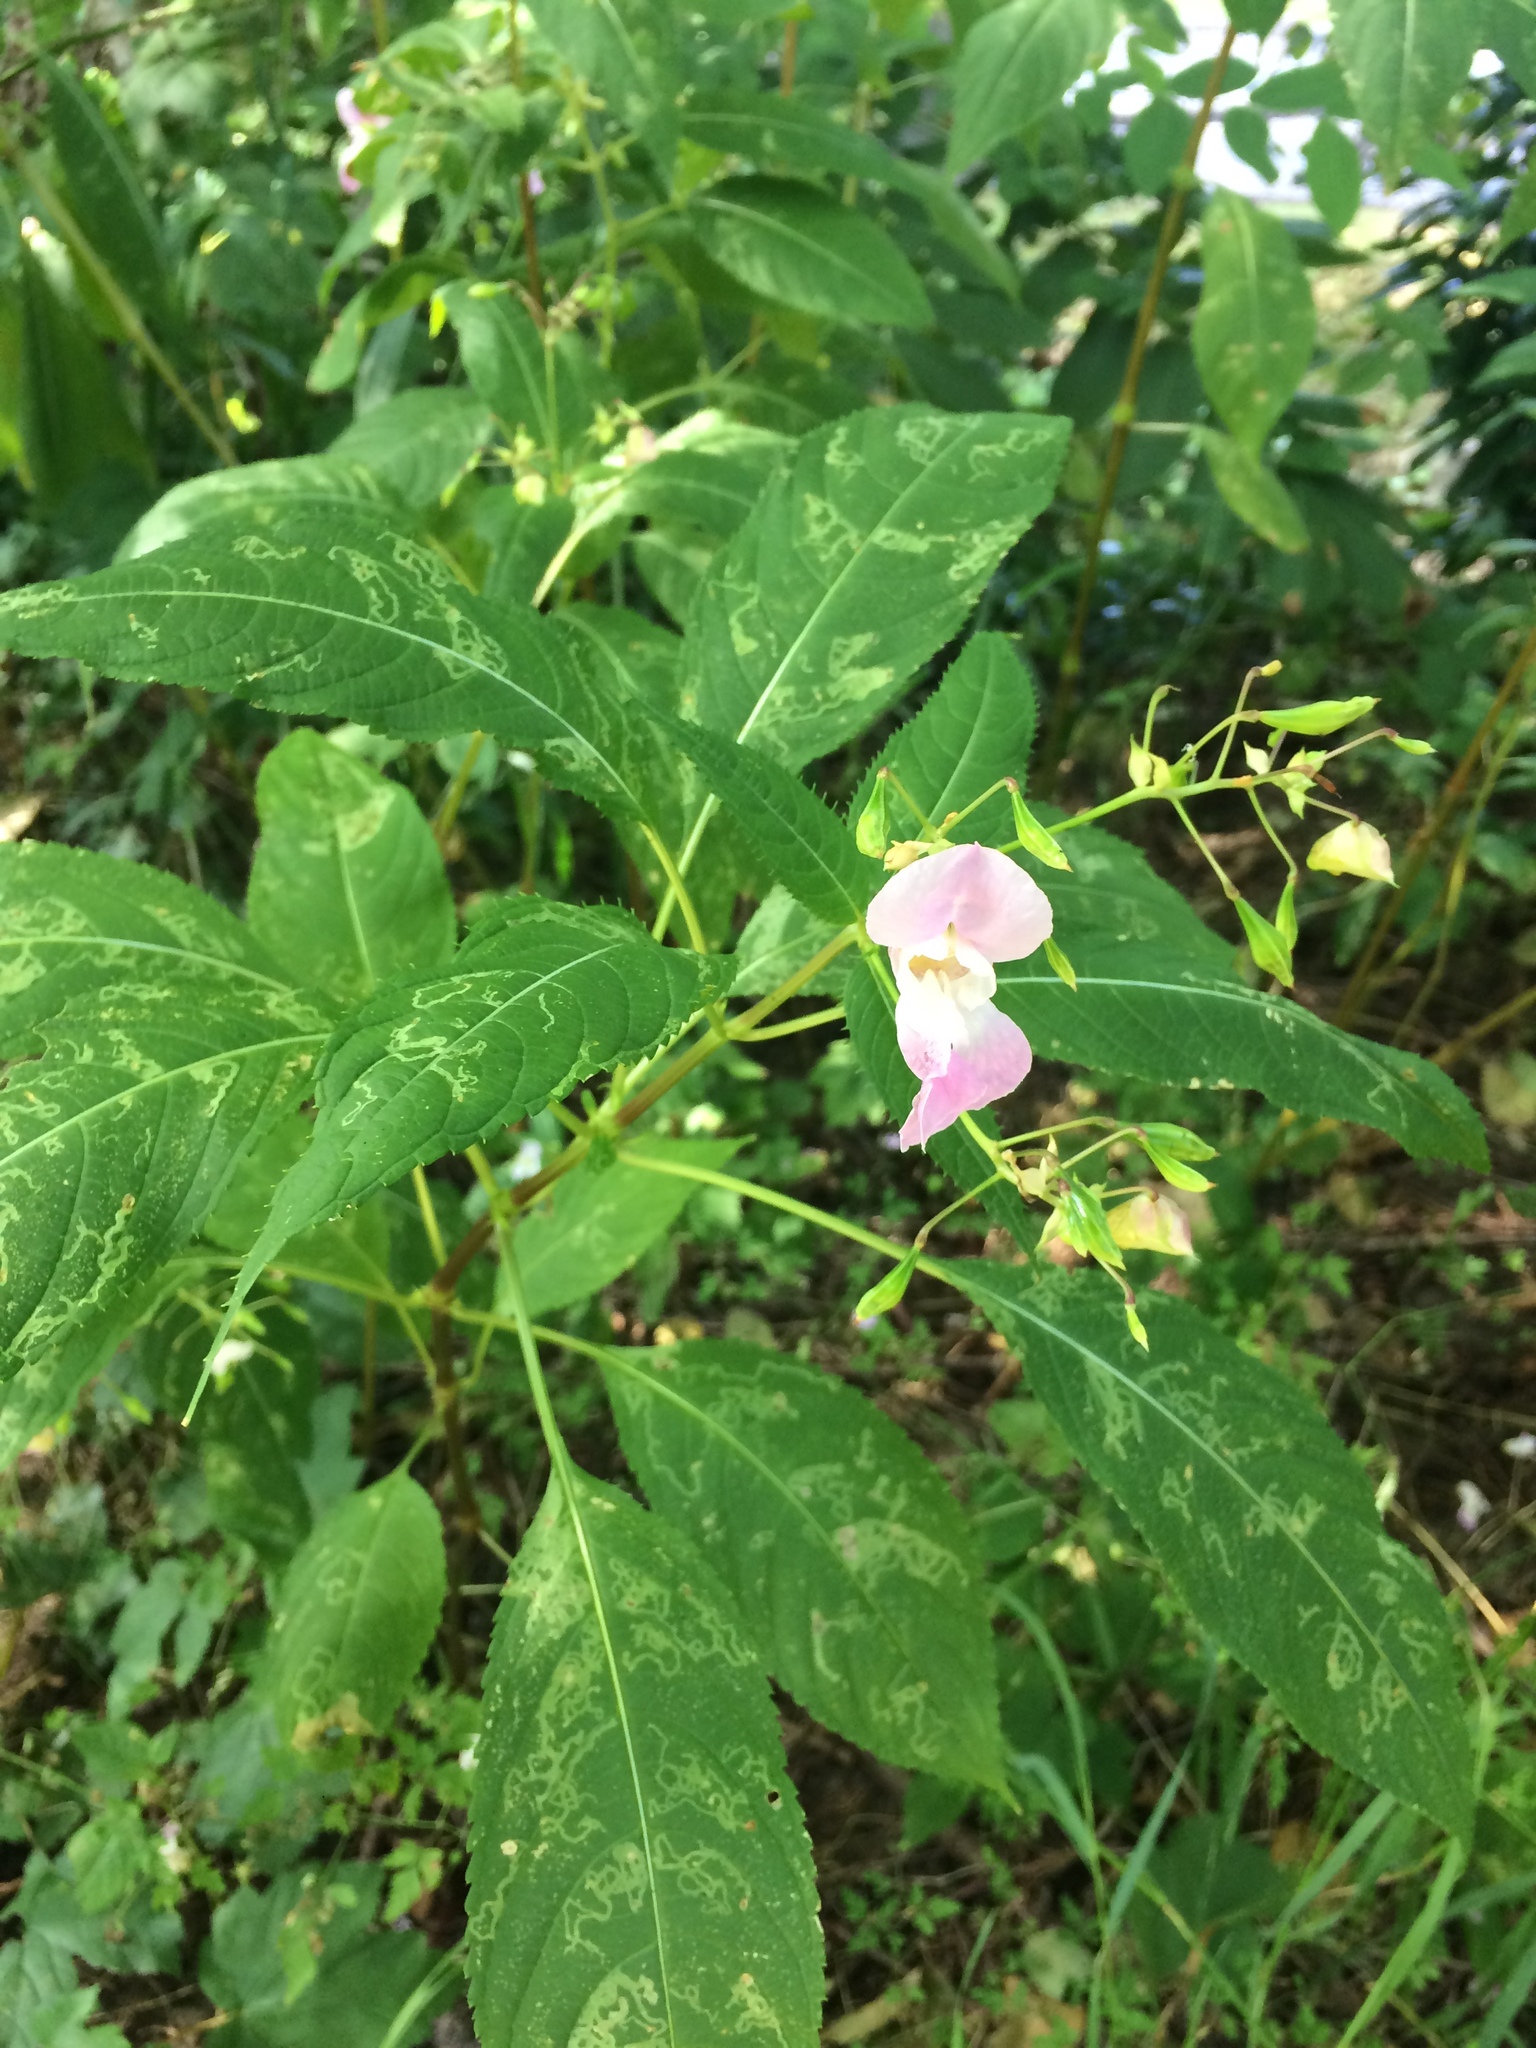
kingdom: Plantae
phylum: Tracheophyta
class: Magnoliopsida
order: Ericales
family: Balsaminaceae
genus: Impatiens
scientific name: Impatiens glandulifera
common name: Himalayan balsam
